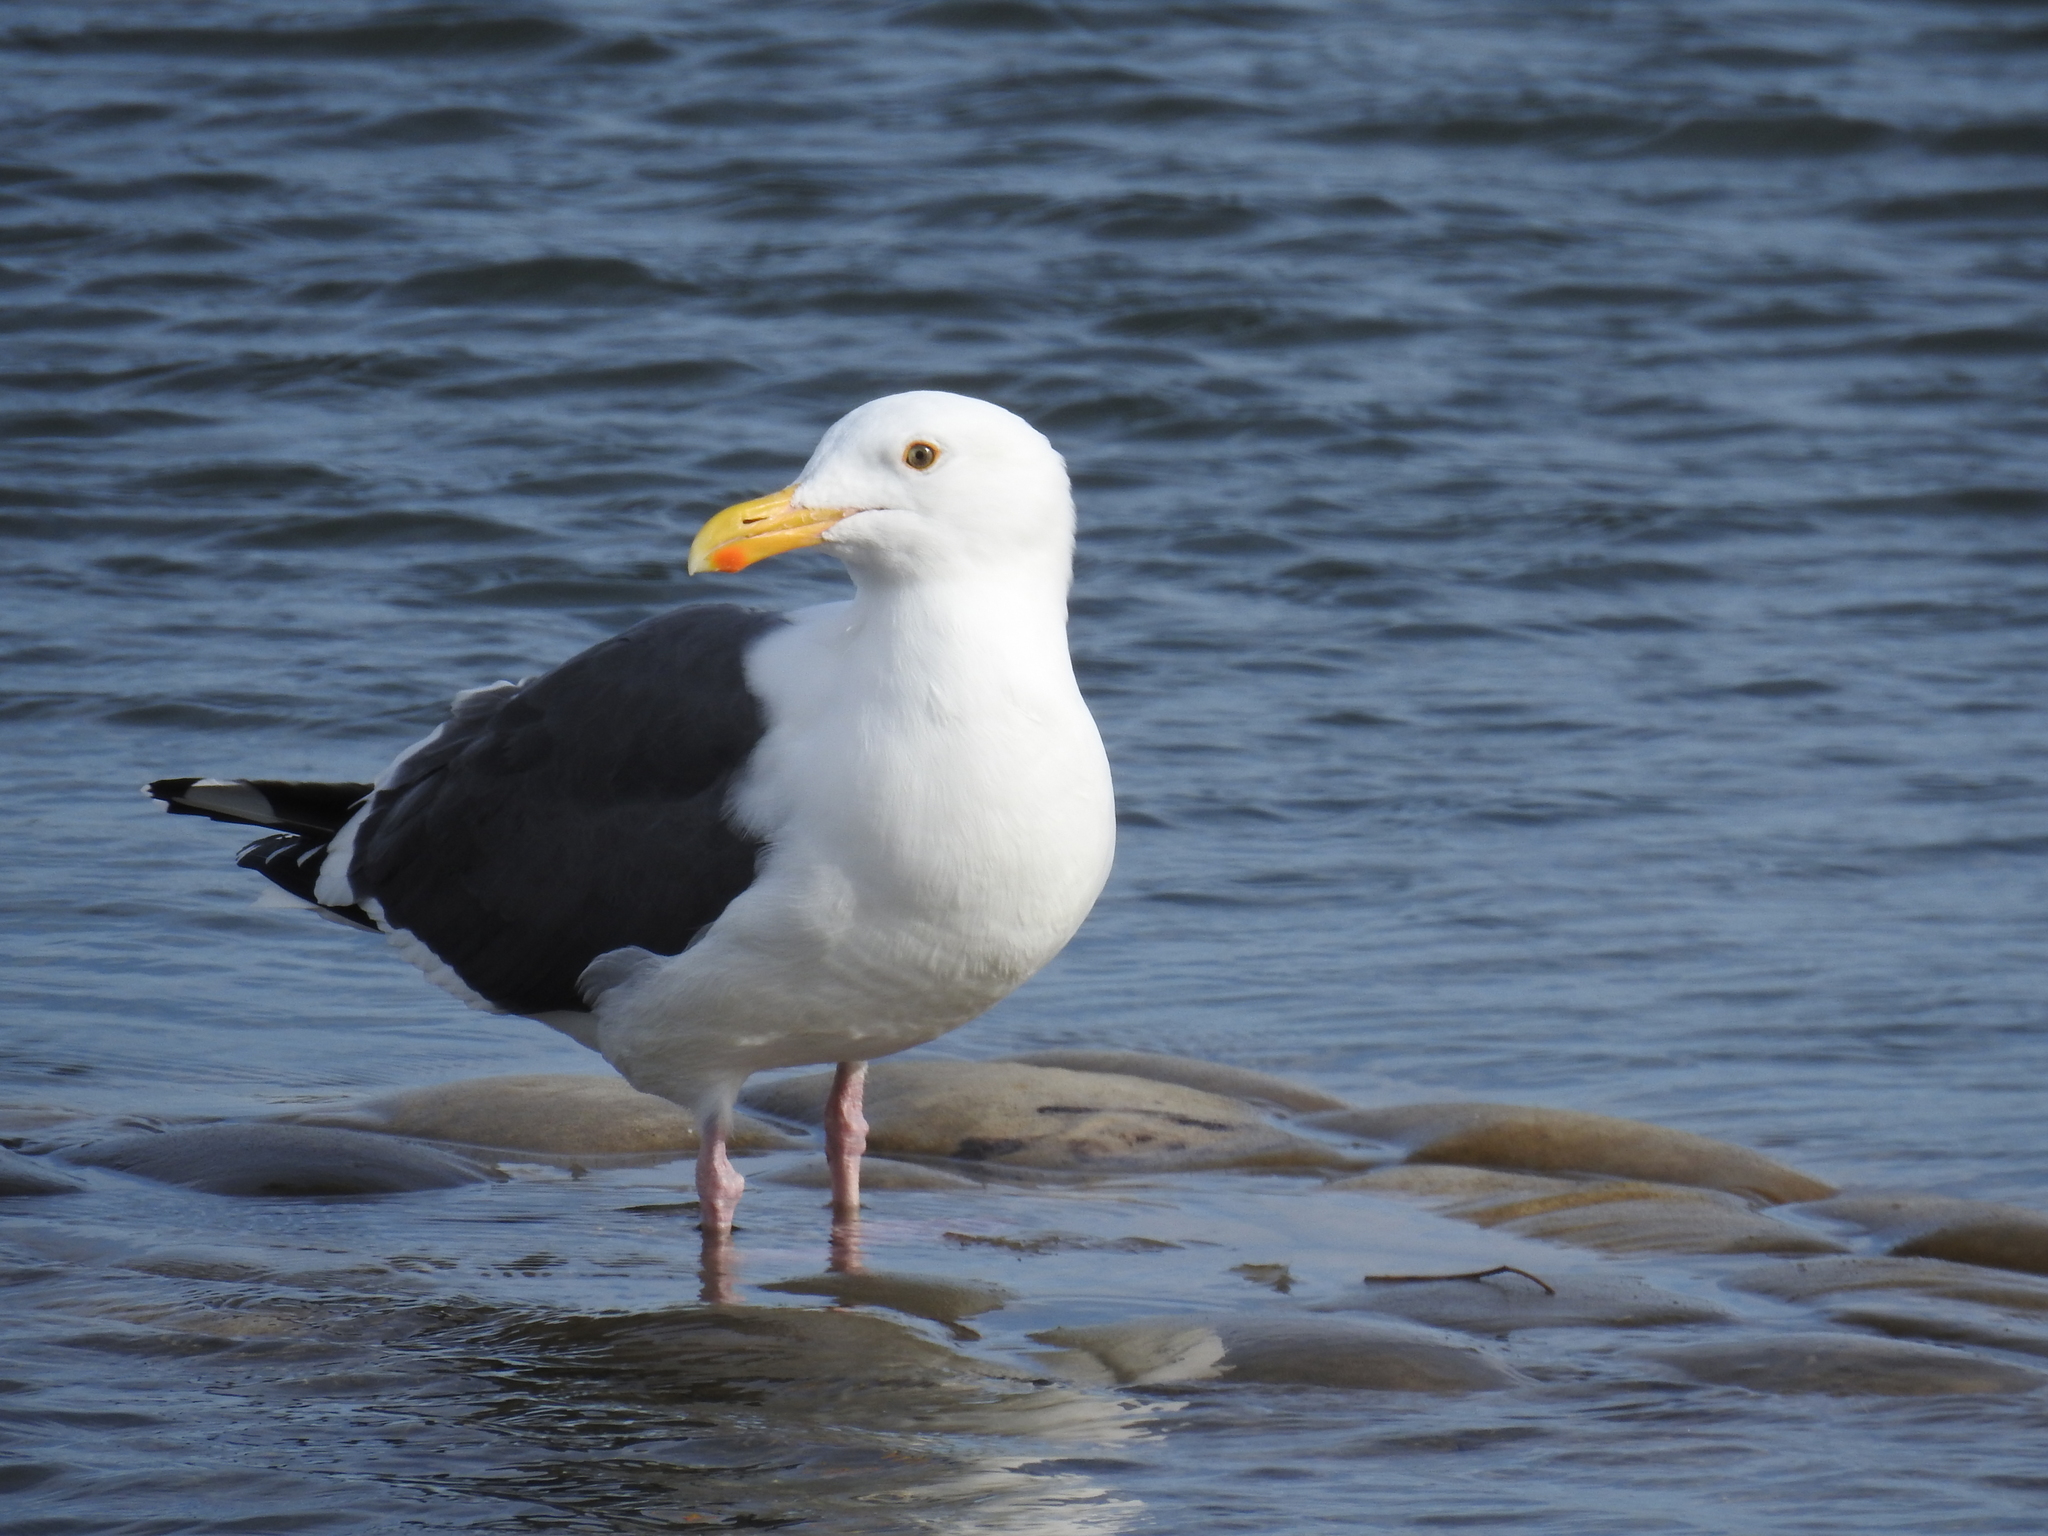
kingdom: Animalia
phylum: Chordata
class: Aves
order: Charadriiformes
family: Laridae
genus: Larus
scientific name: Larus occidentalis
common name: Western gull
